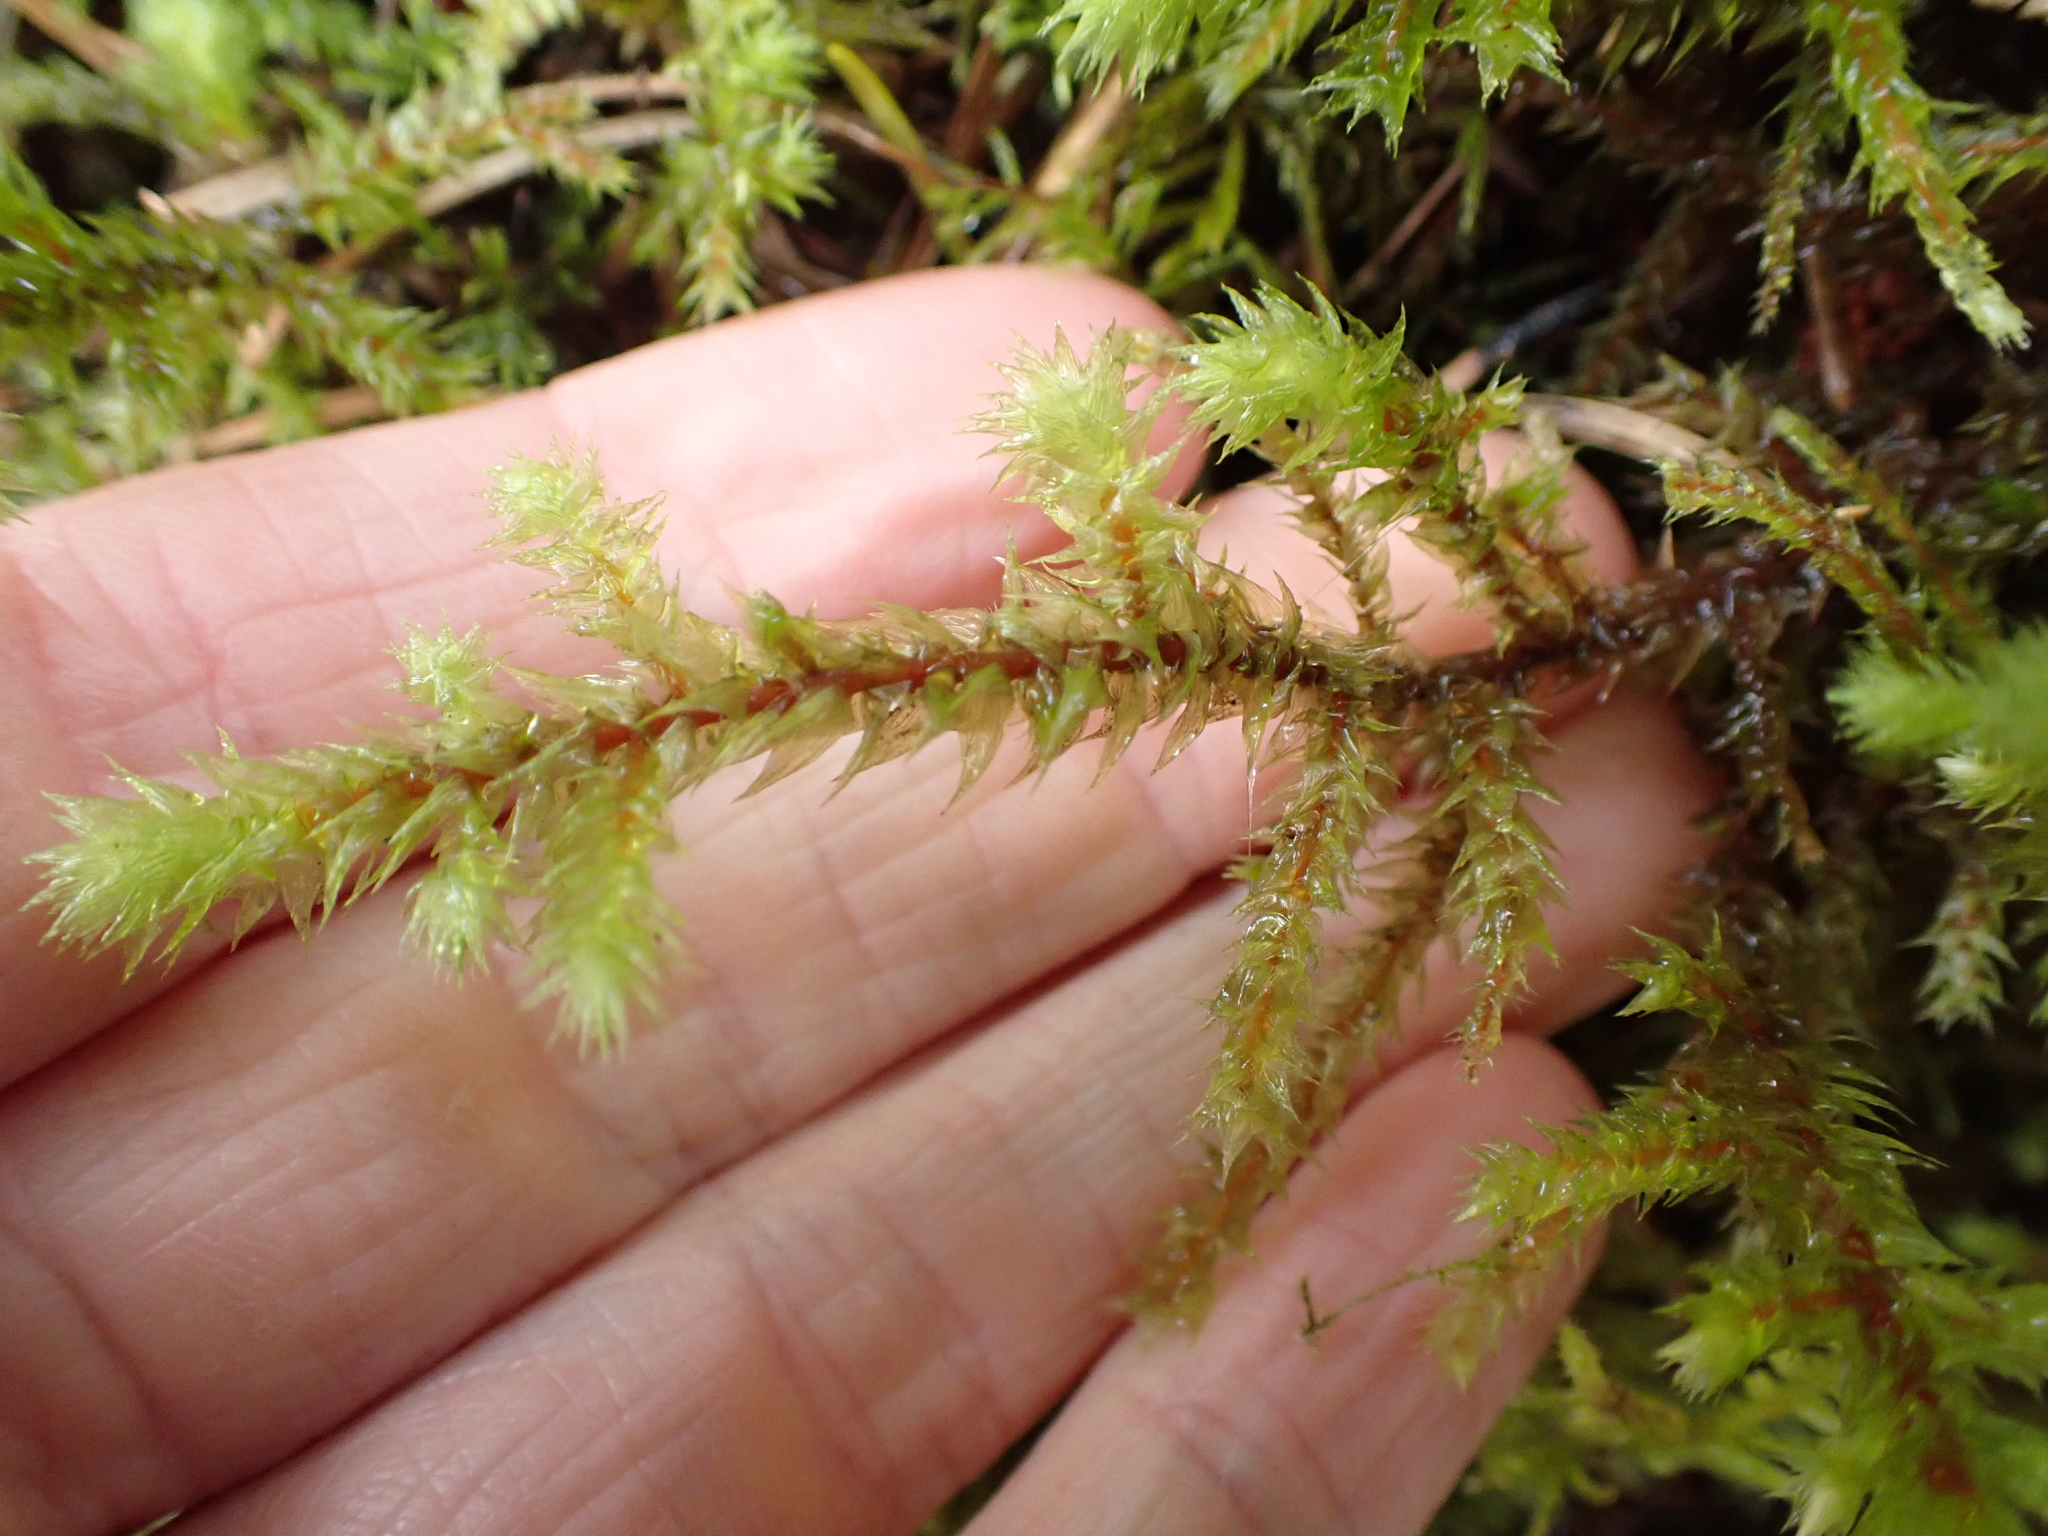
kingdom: Plantae
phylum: Bryophyta
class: Bryopsida
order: Hypnales
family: Hylocomiaceae
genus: Hylocomiadelphus
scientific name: Hylocomiadelphus triquetrus
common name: Rough goose neck moss
